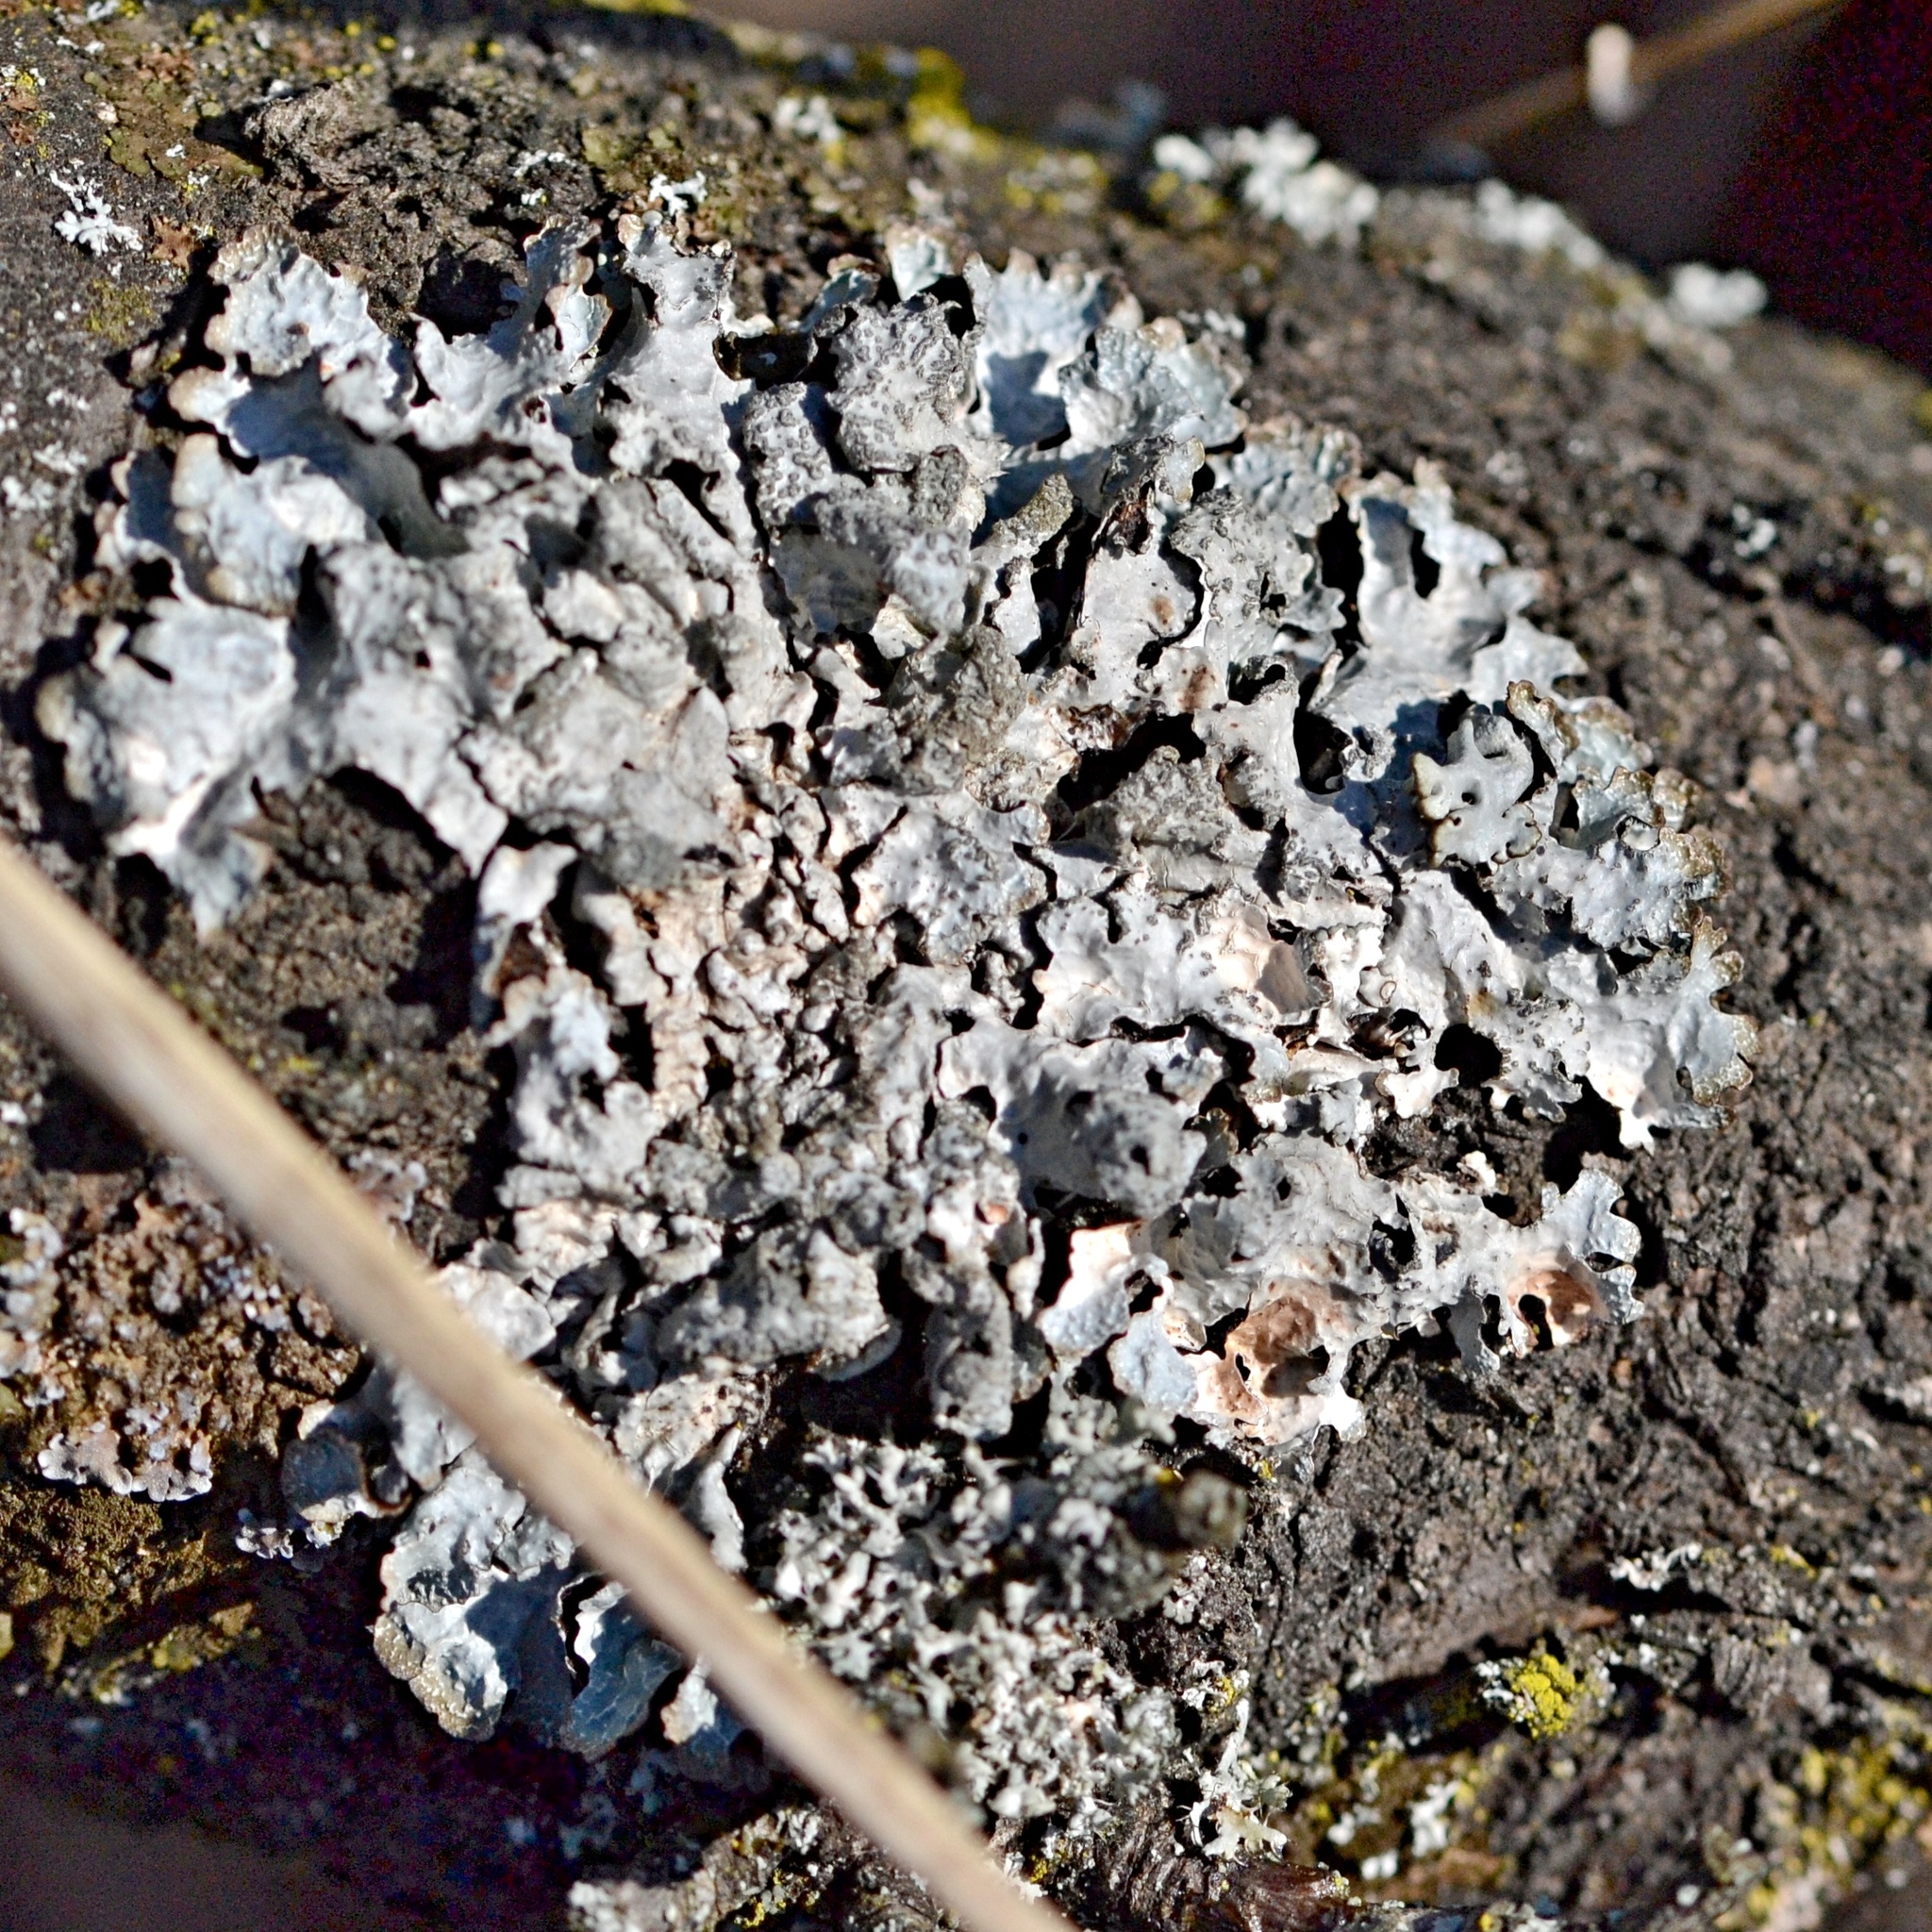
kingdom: Fungi
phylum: Ascomycota
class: Lecanoromycetes
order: Lecanorales
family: Parmeliaceae
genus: Parmelia
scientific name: Parmelia sulcata
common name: Netted shield lichen
